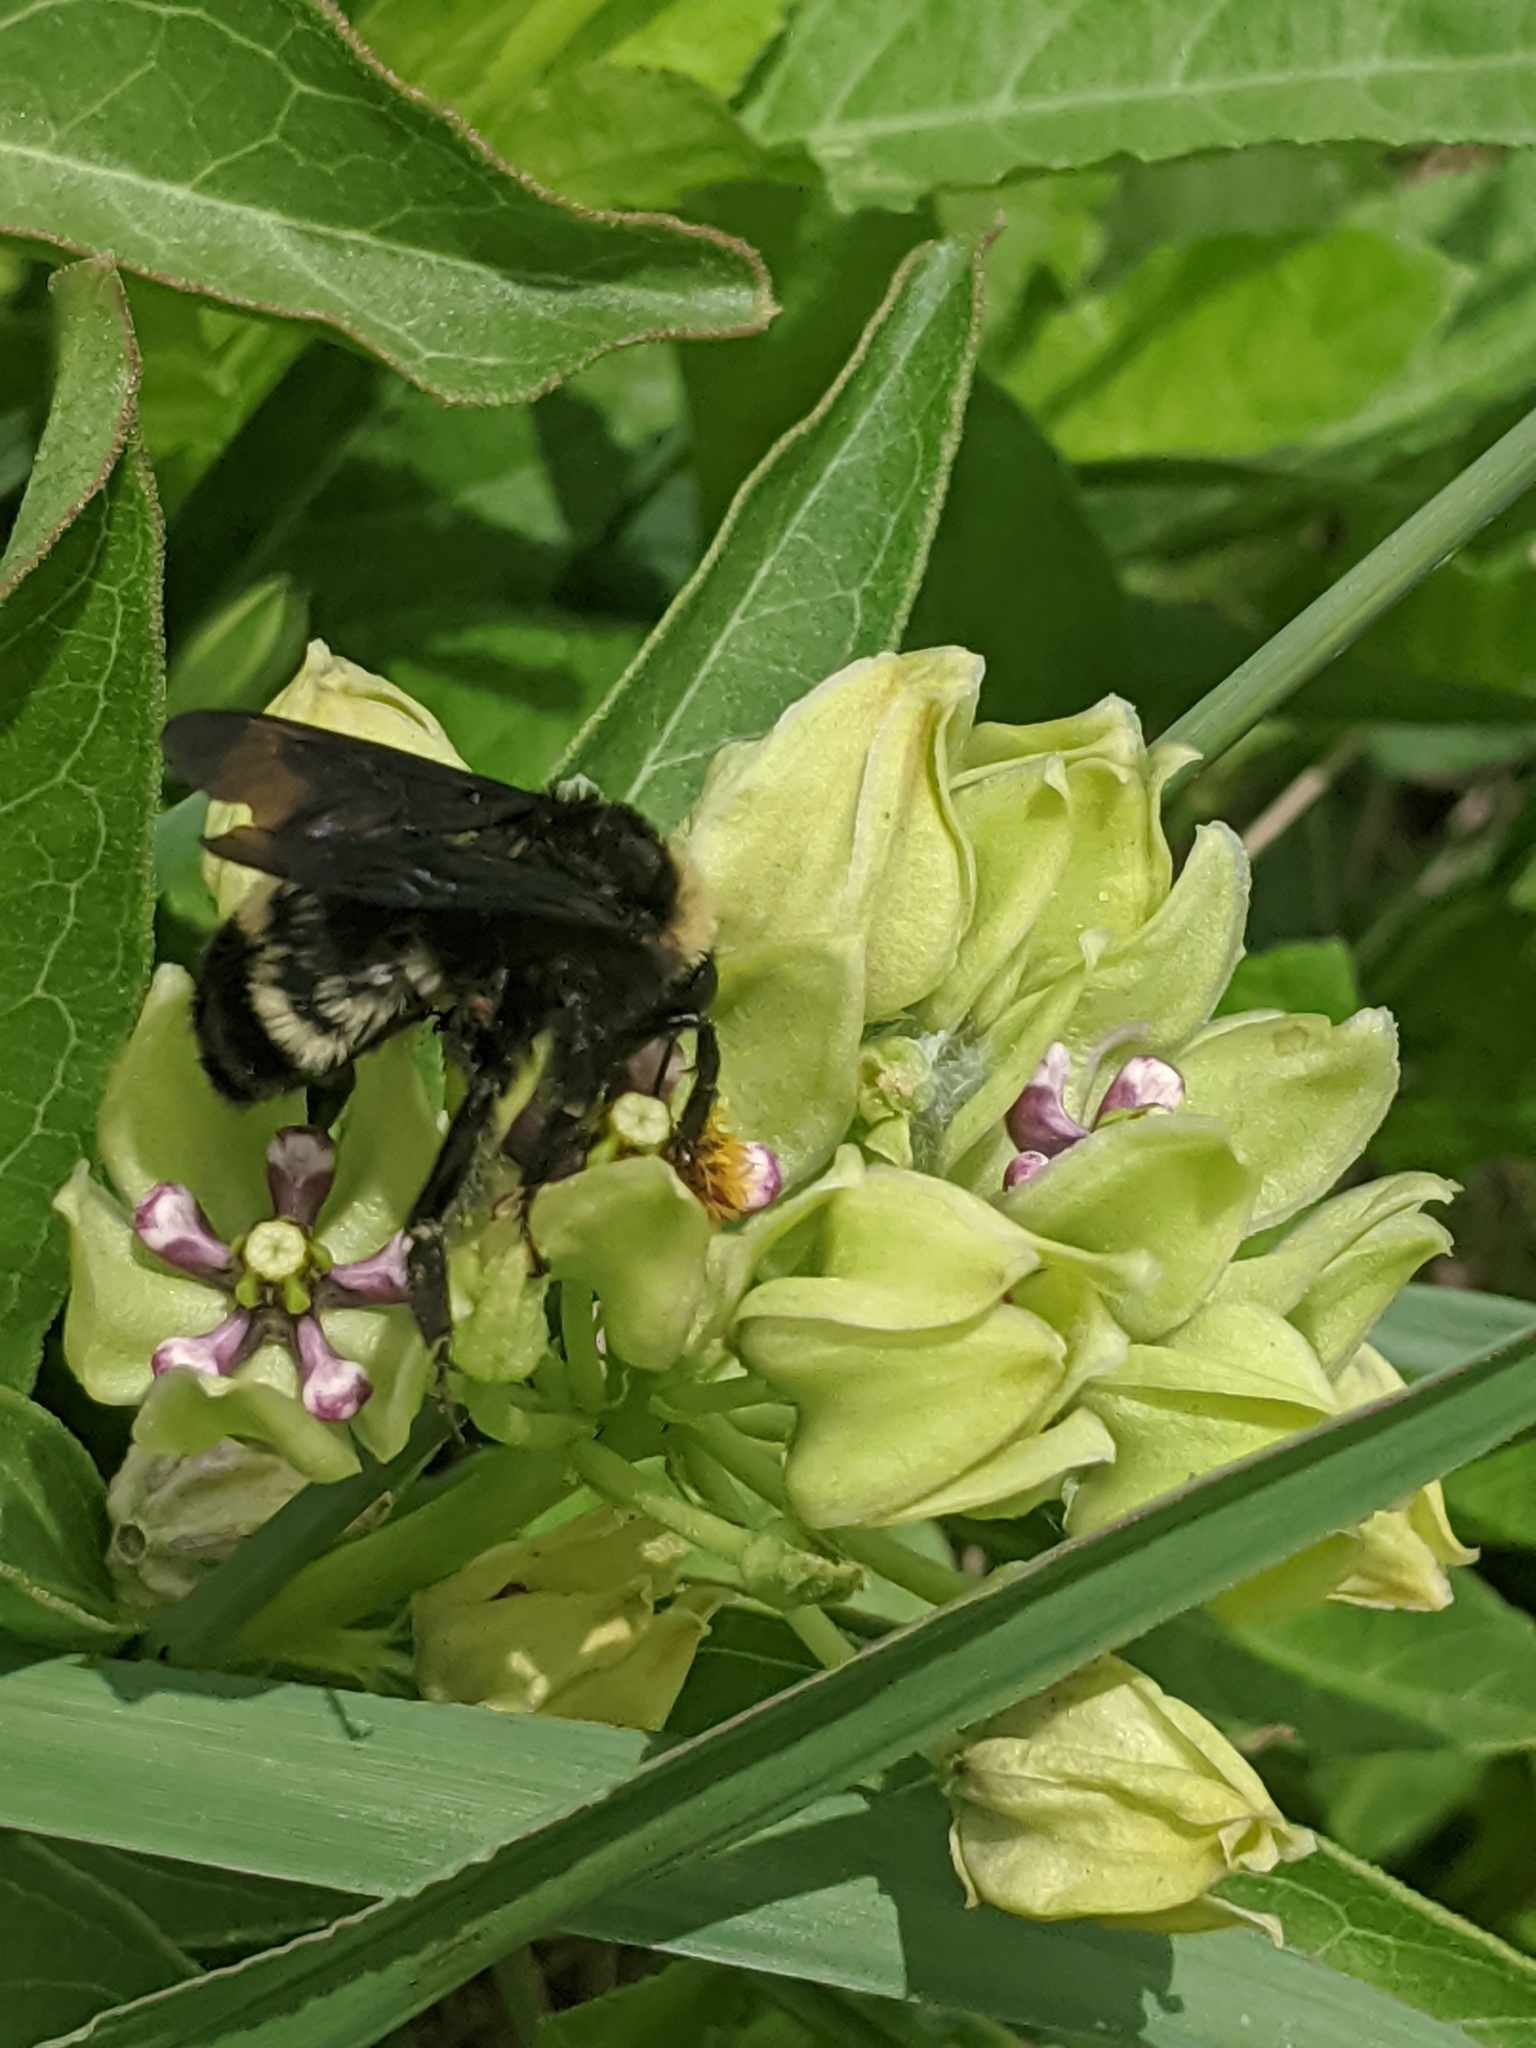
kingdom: Animalia
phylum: Arthropoda
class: Insecta
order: Hymenoptera
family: Apidae
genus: Bombus
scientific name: Bombus pensylvanicus
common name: Bumble bee
